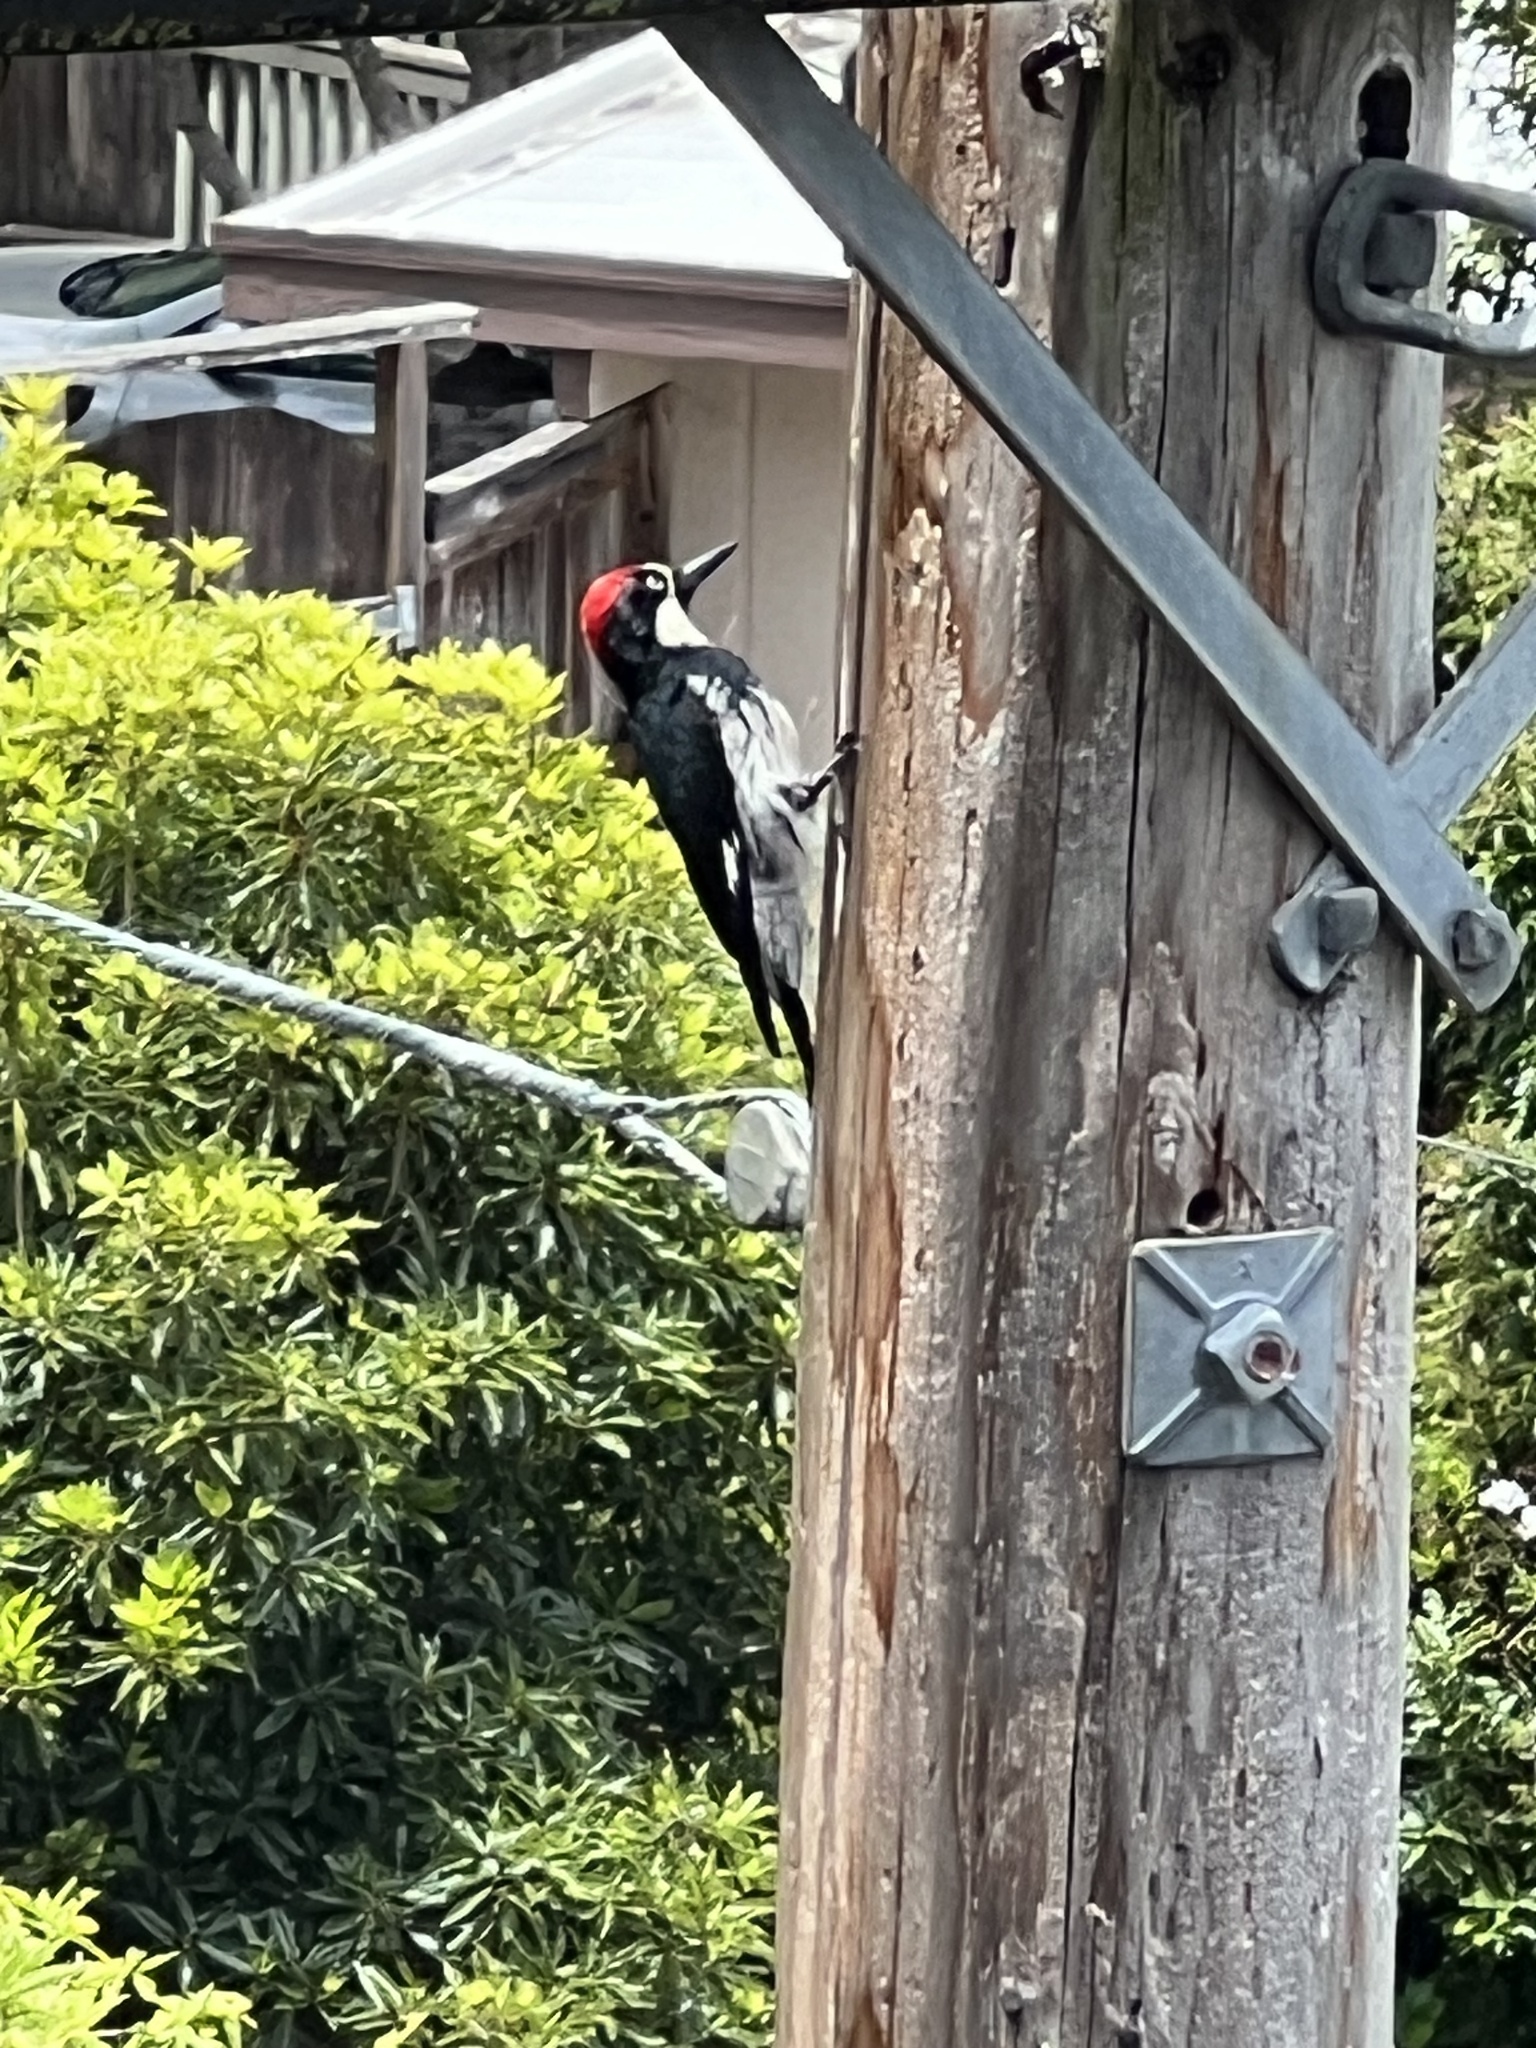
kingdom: Animalia
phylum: Chordata
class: Aves
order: Piciformes
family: Picidae
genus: Melanerpes
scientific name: Melanerpes formicivorus
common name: Acorn woodpecker
